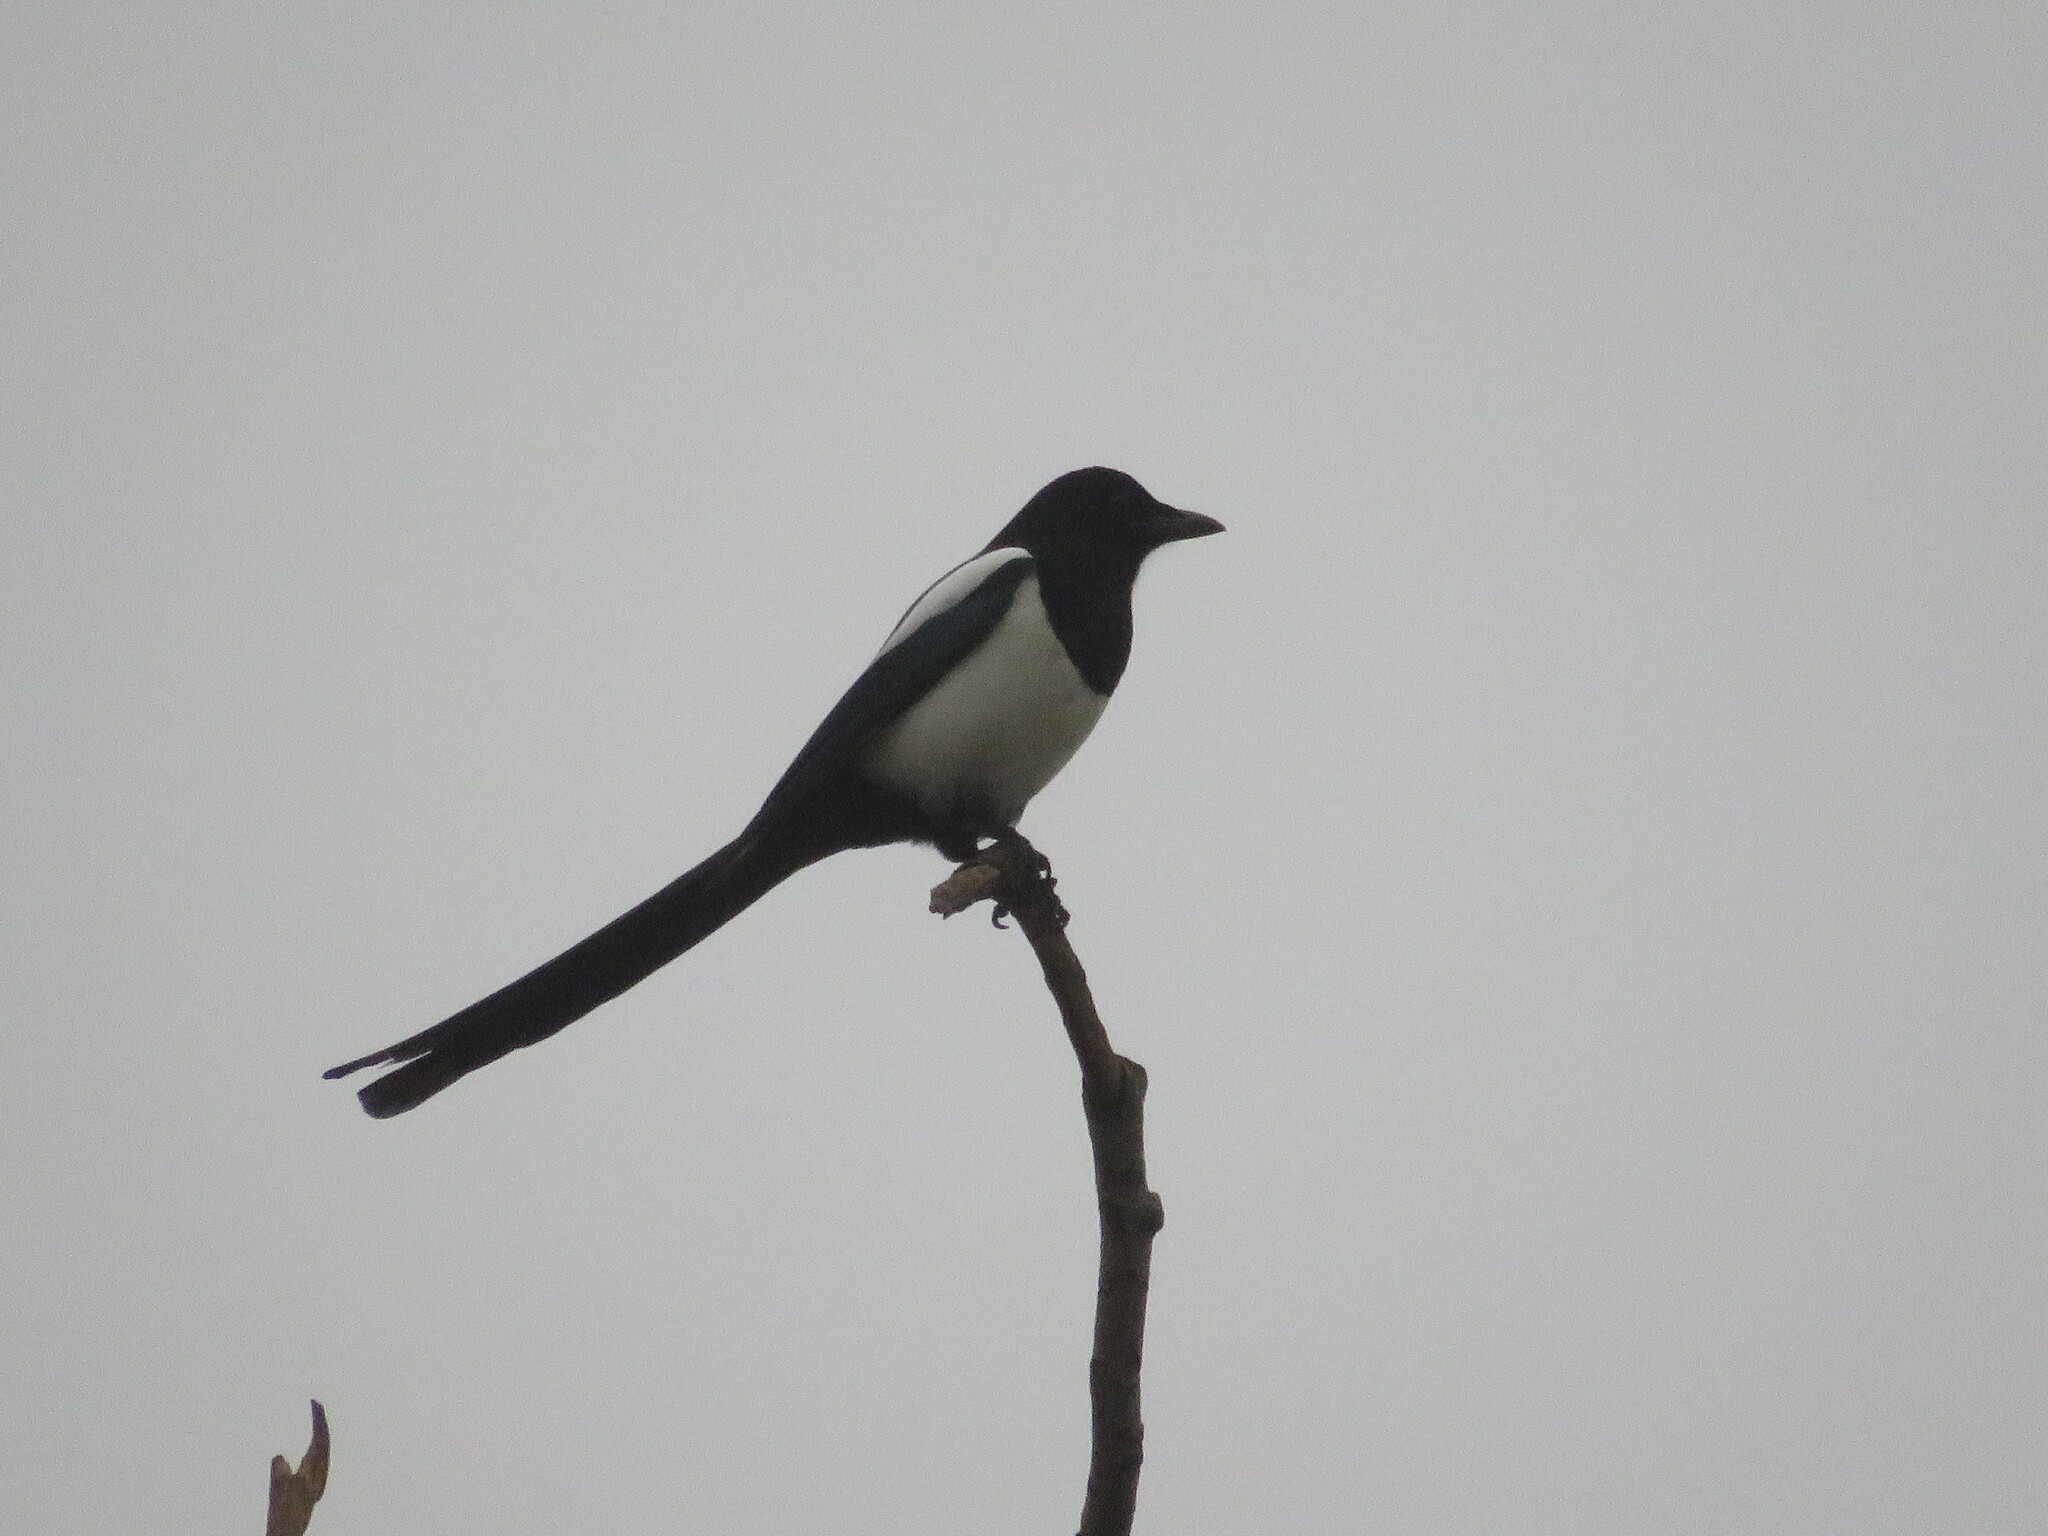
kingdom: Animalia
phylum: Chordata
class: Aves
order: Passeriformes
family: Corvidae
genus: Pica
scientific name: Pica pica
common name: Eurasian magpie
